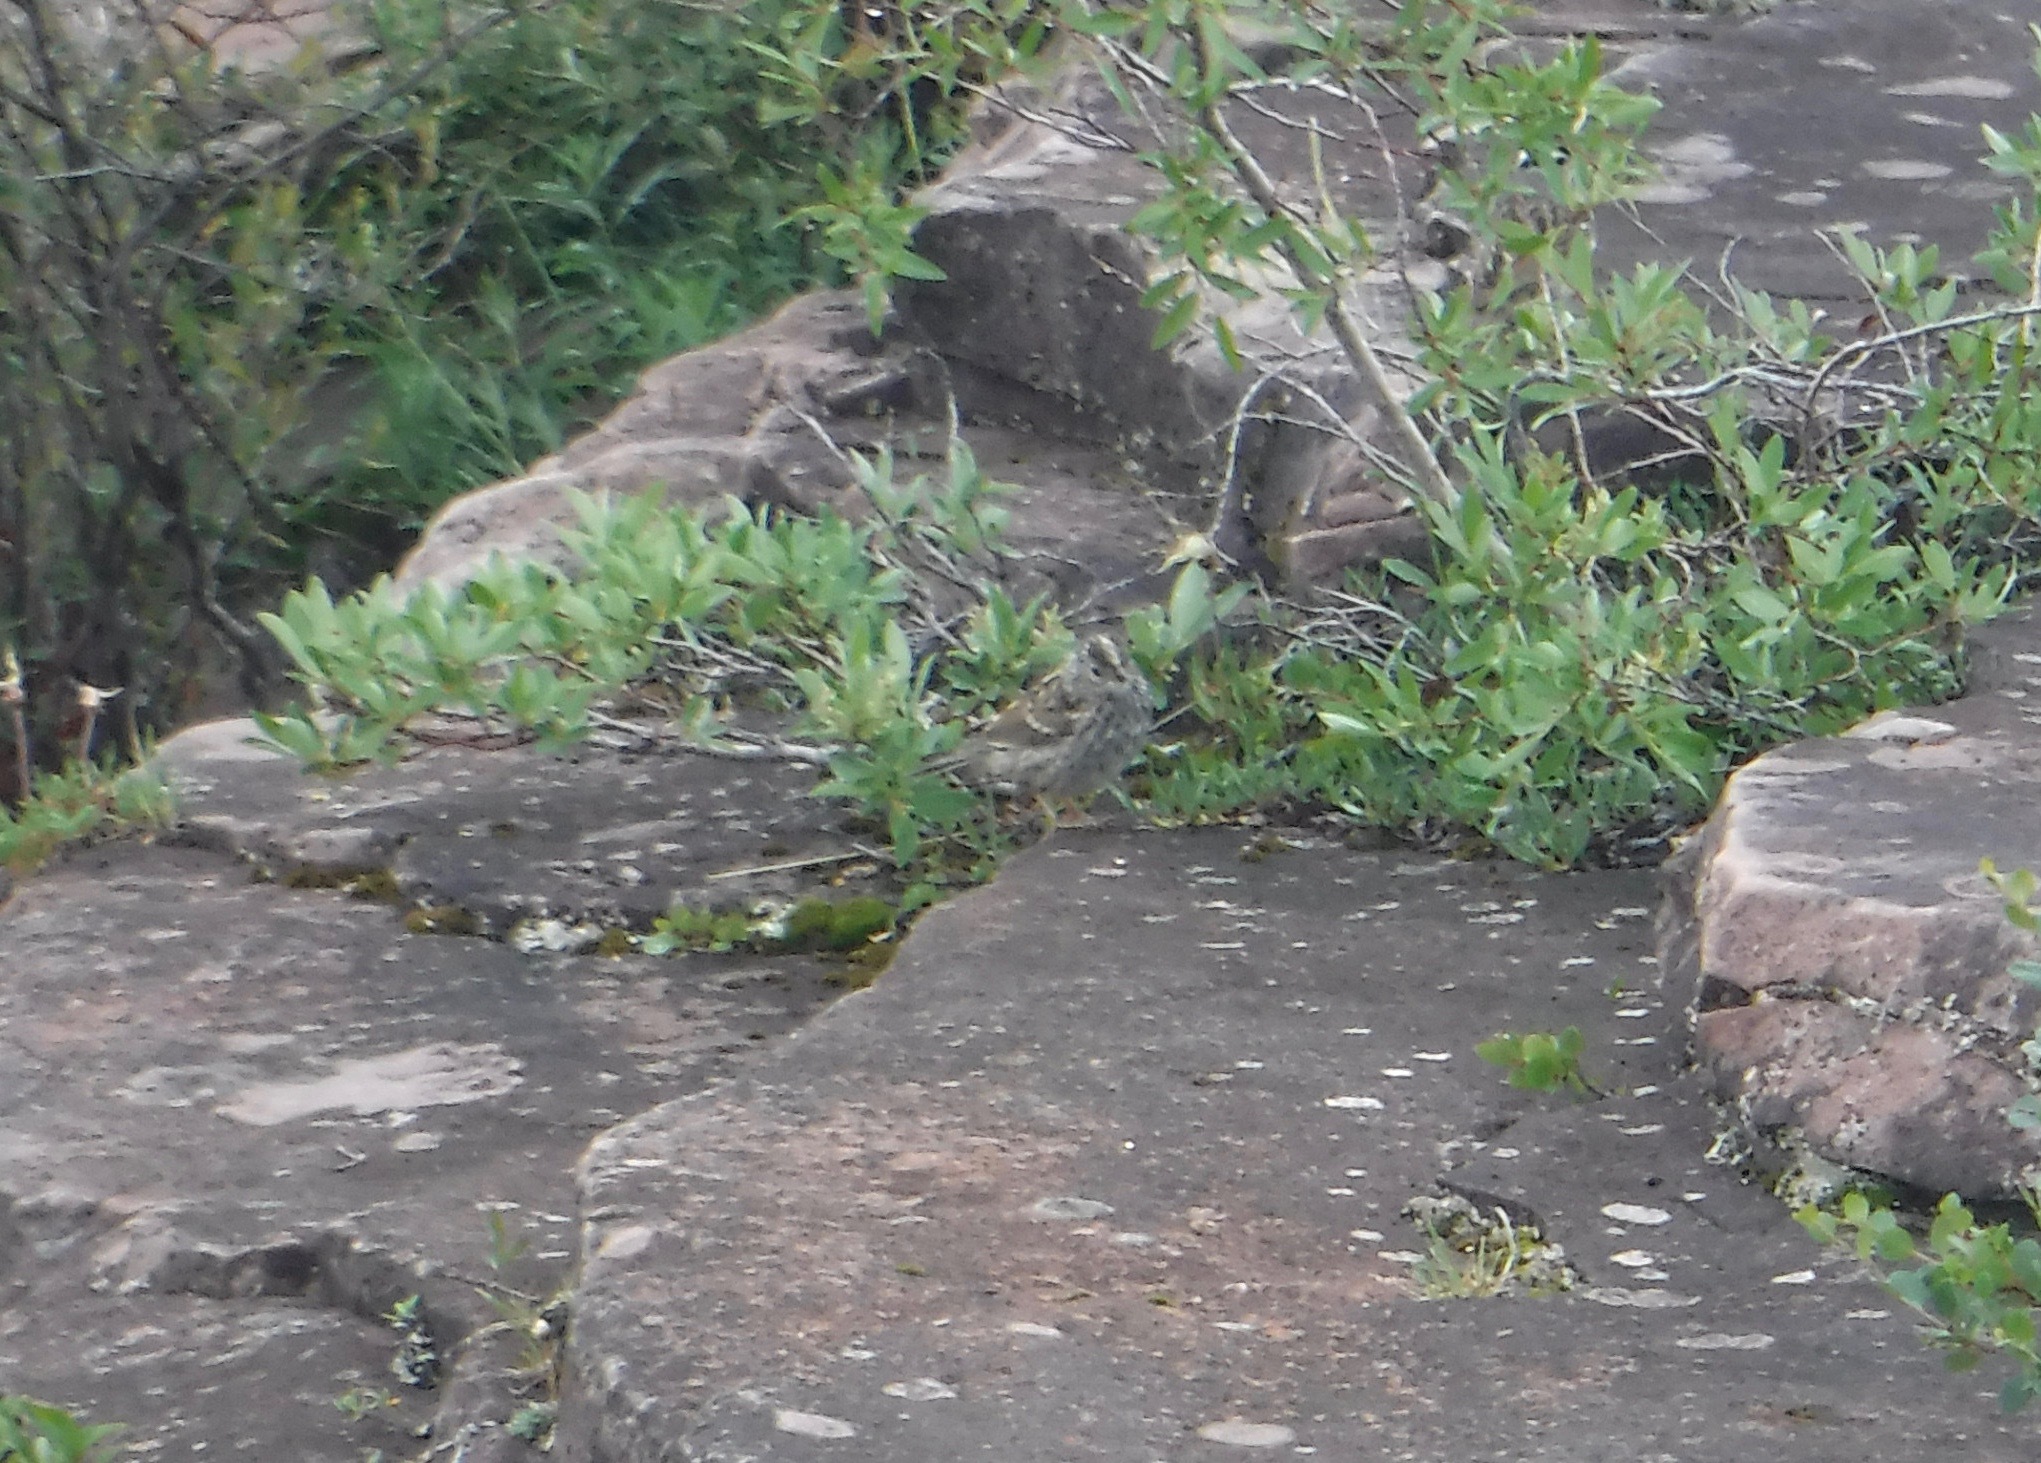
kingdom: Animalia
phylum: Chordata
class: Aves
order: Passeriformes
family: Passerellidae
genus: Zonotrichia
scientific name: Zonotrichia leucophrys
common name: White-crowned sparrow
